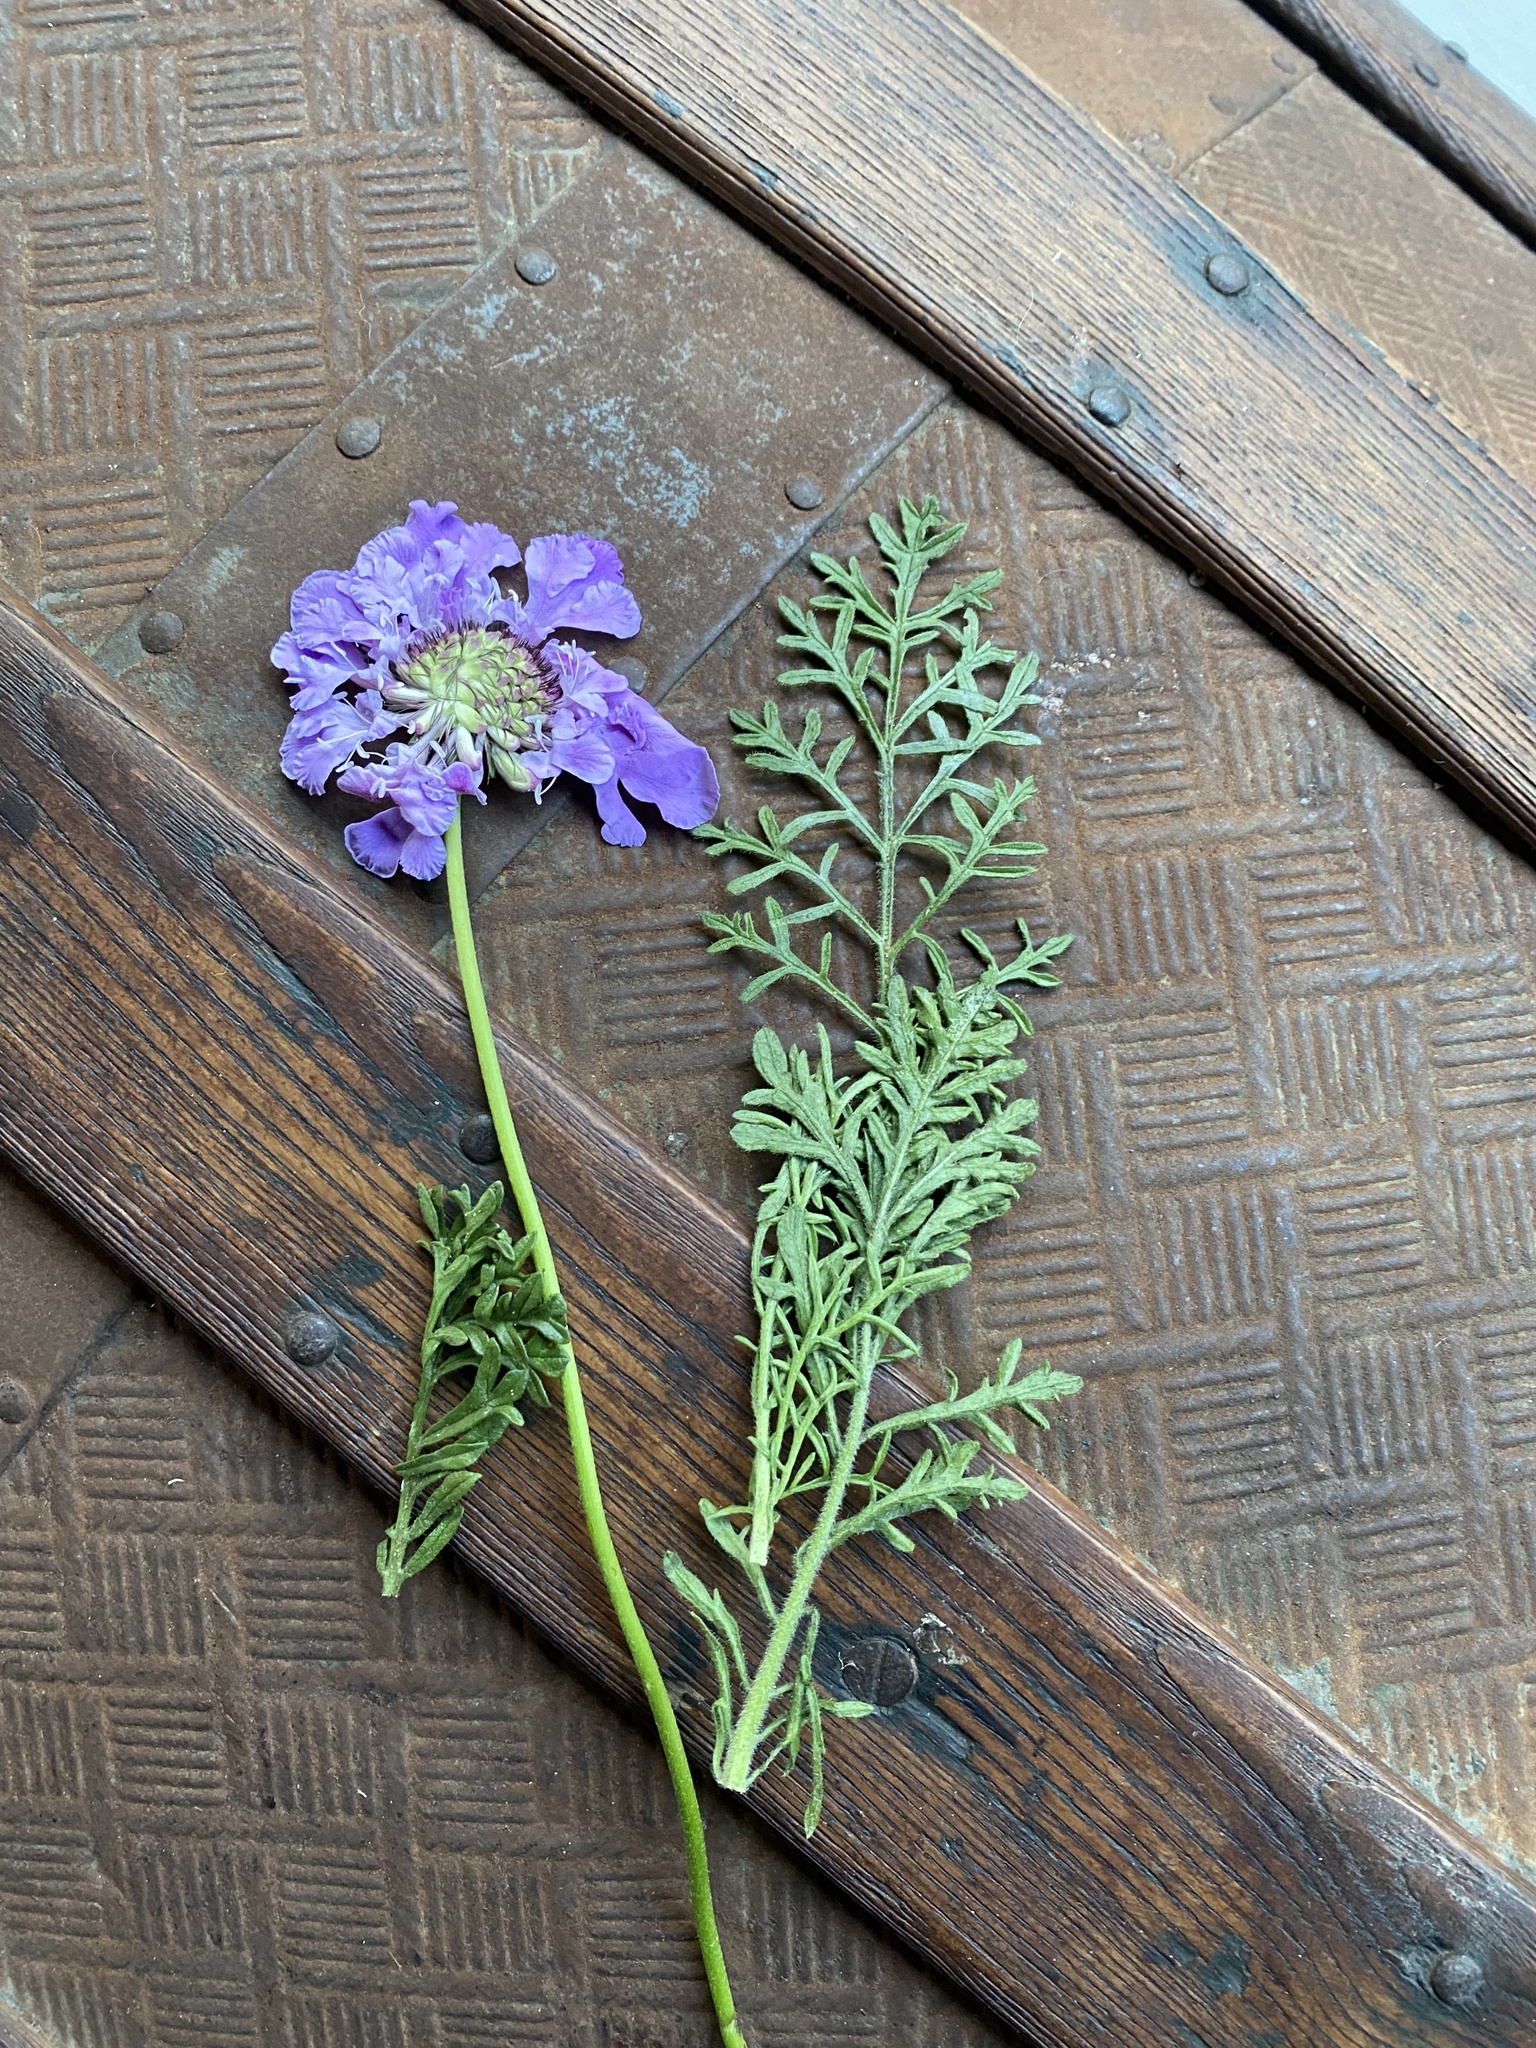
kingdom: Plantae
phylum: Tracheophyta
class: Magnoliopsida
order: Dipsacales
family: Caprifoliaceae
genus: Scabiosa
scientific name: Scabiosa columbaria
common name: Small scabious
